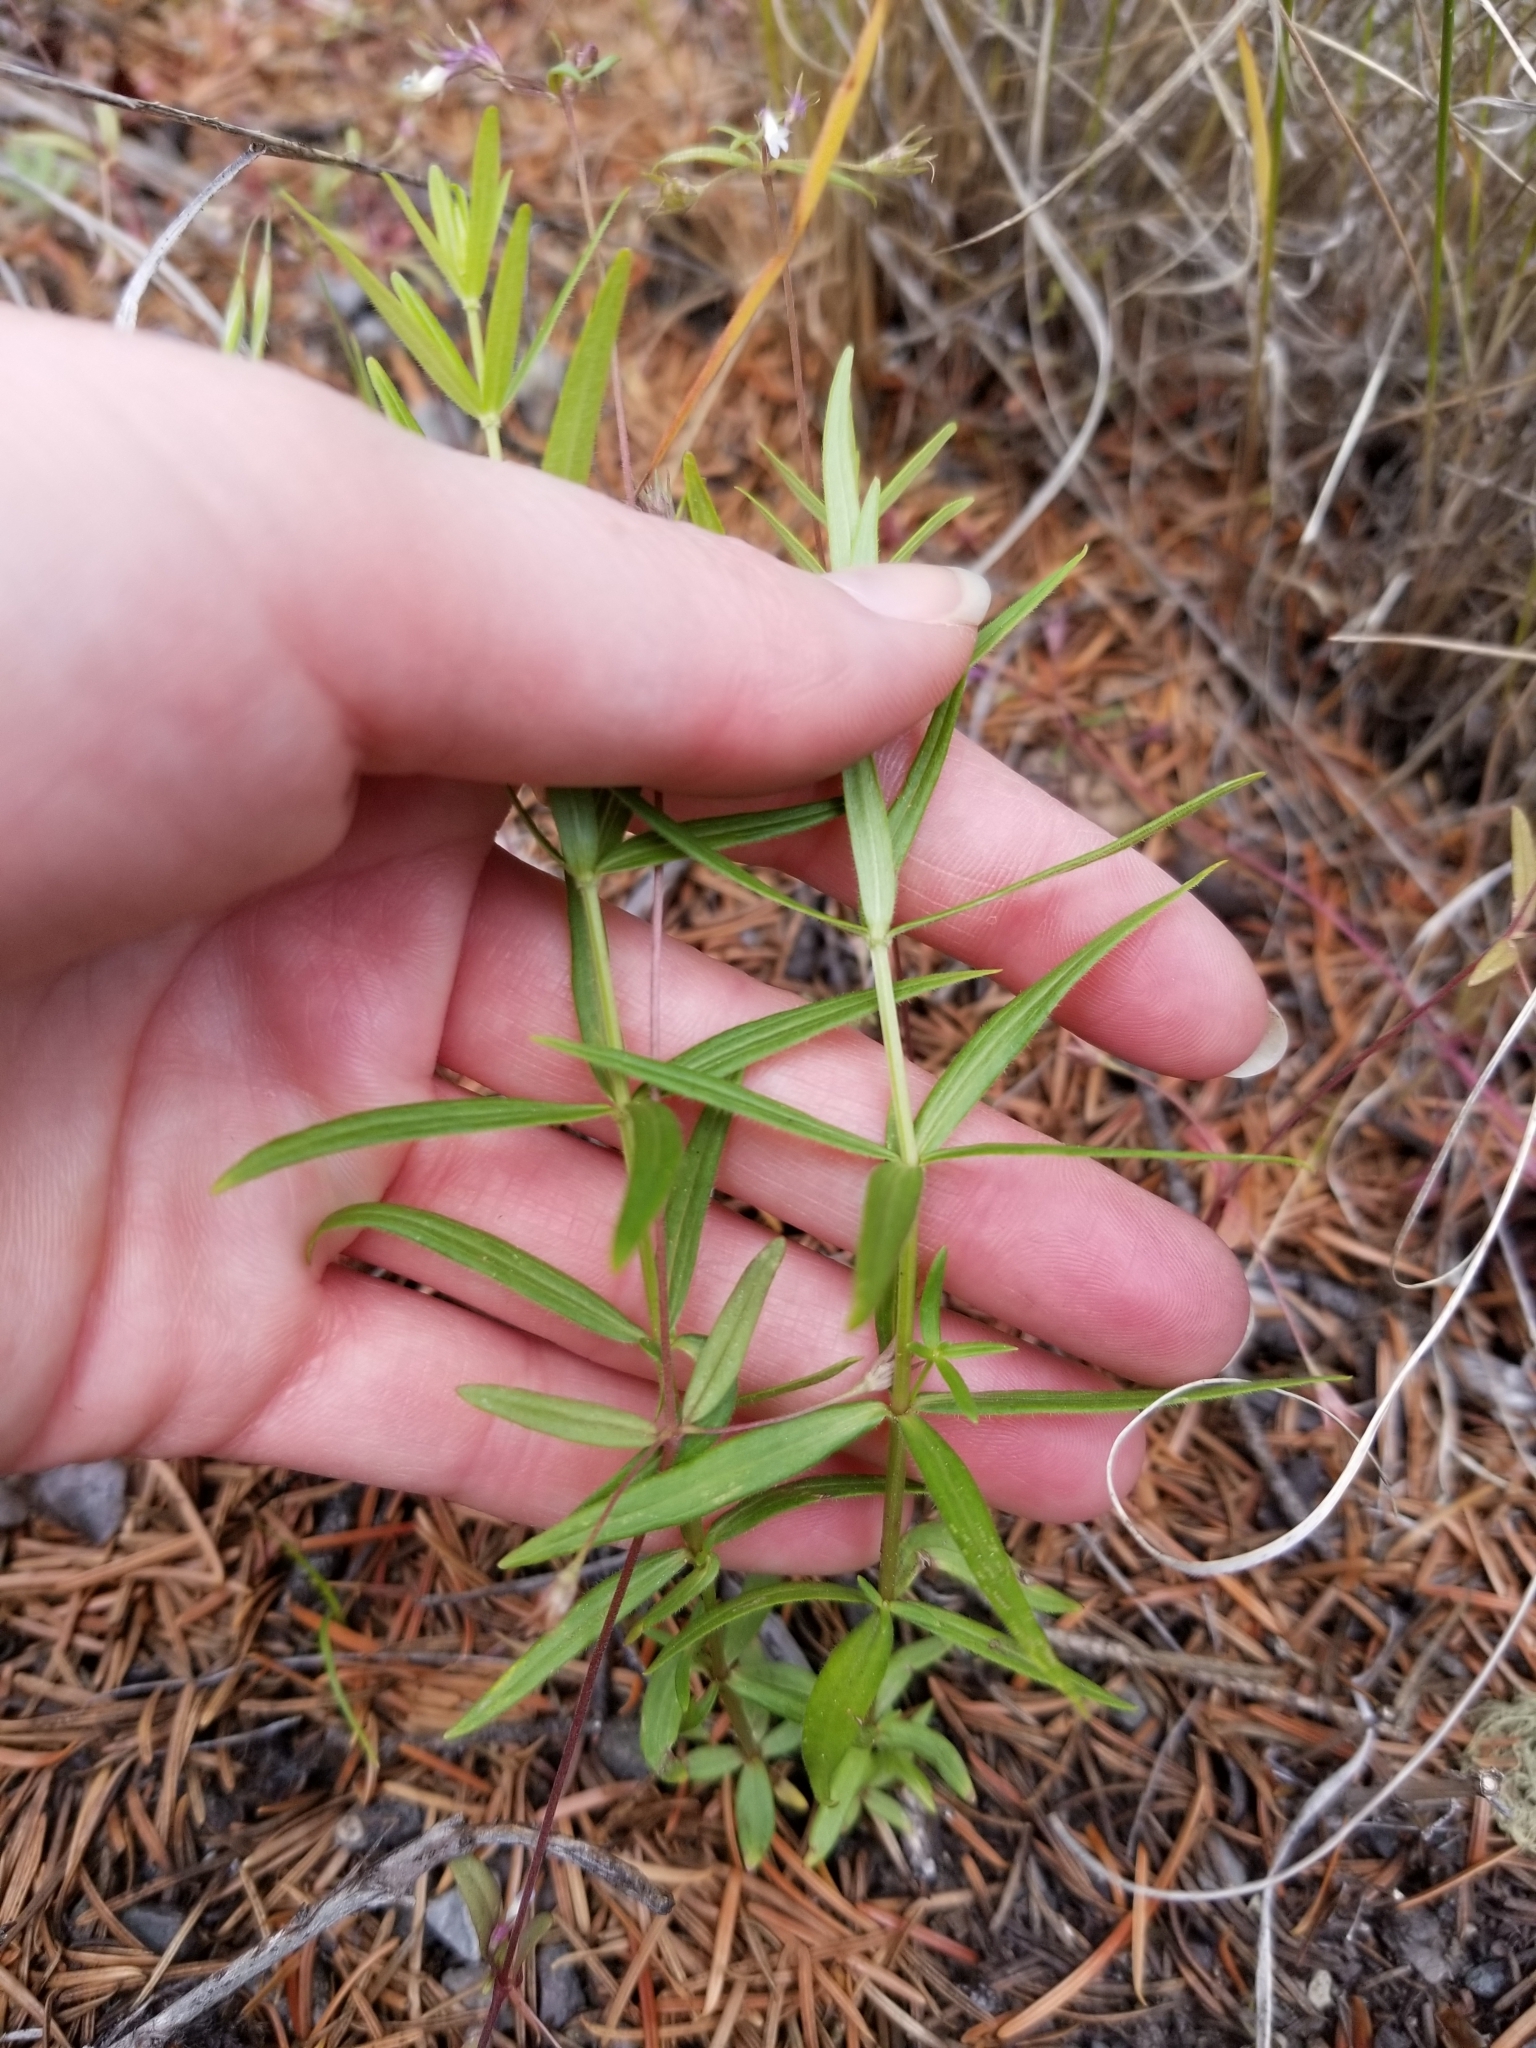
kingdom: Plantae
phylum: Tracheophyta
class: Magnoliopsida
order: Gentianales
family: Rubiaceae
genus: Galium
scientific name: Galium boreale
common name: Northern bedstraw
